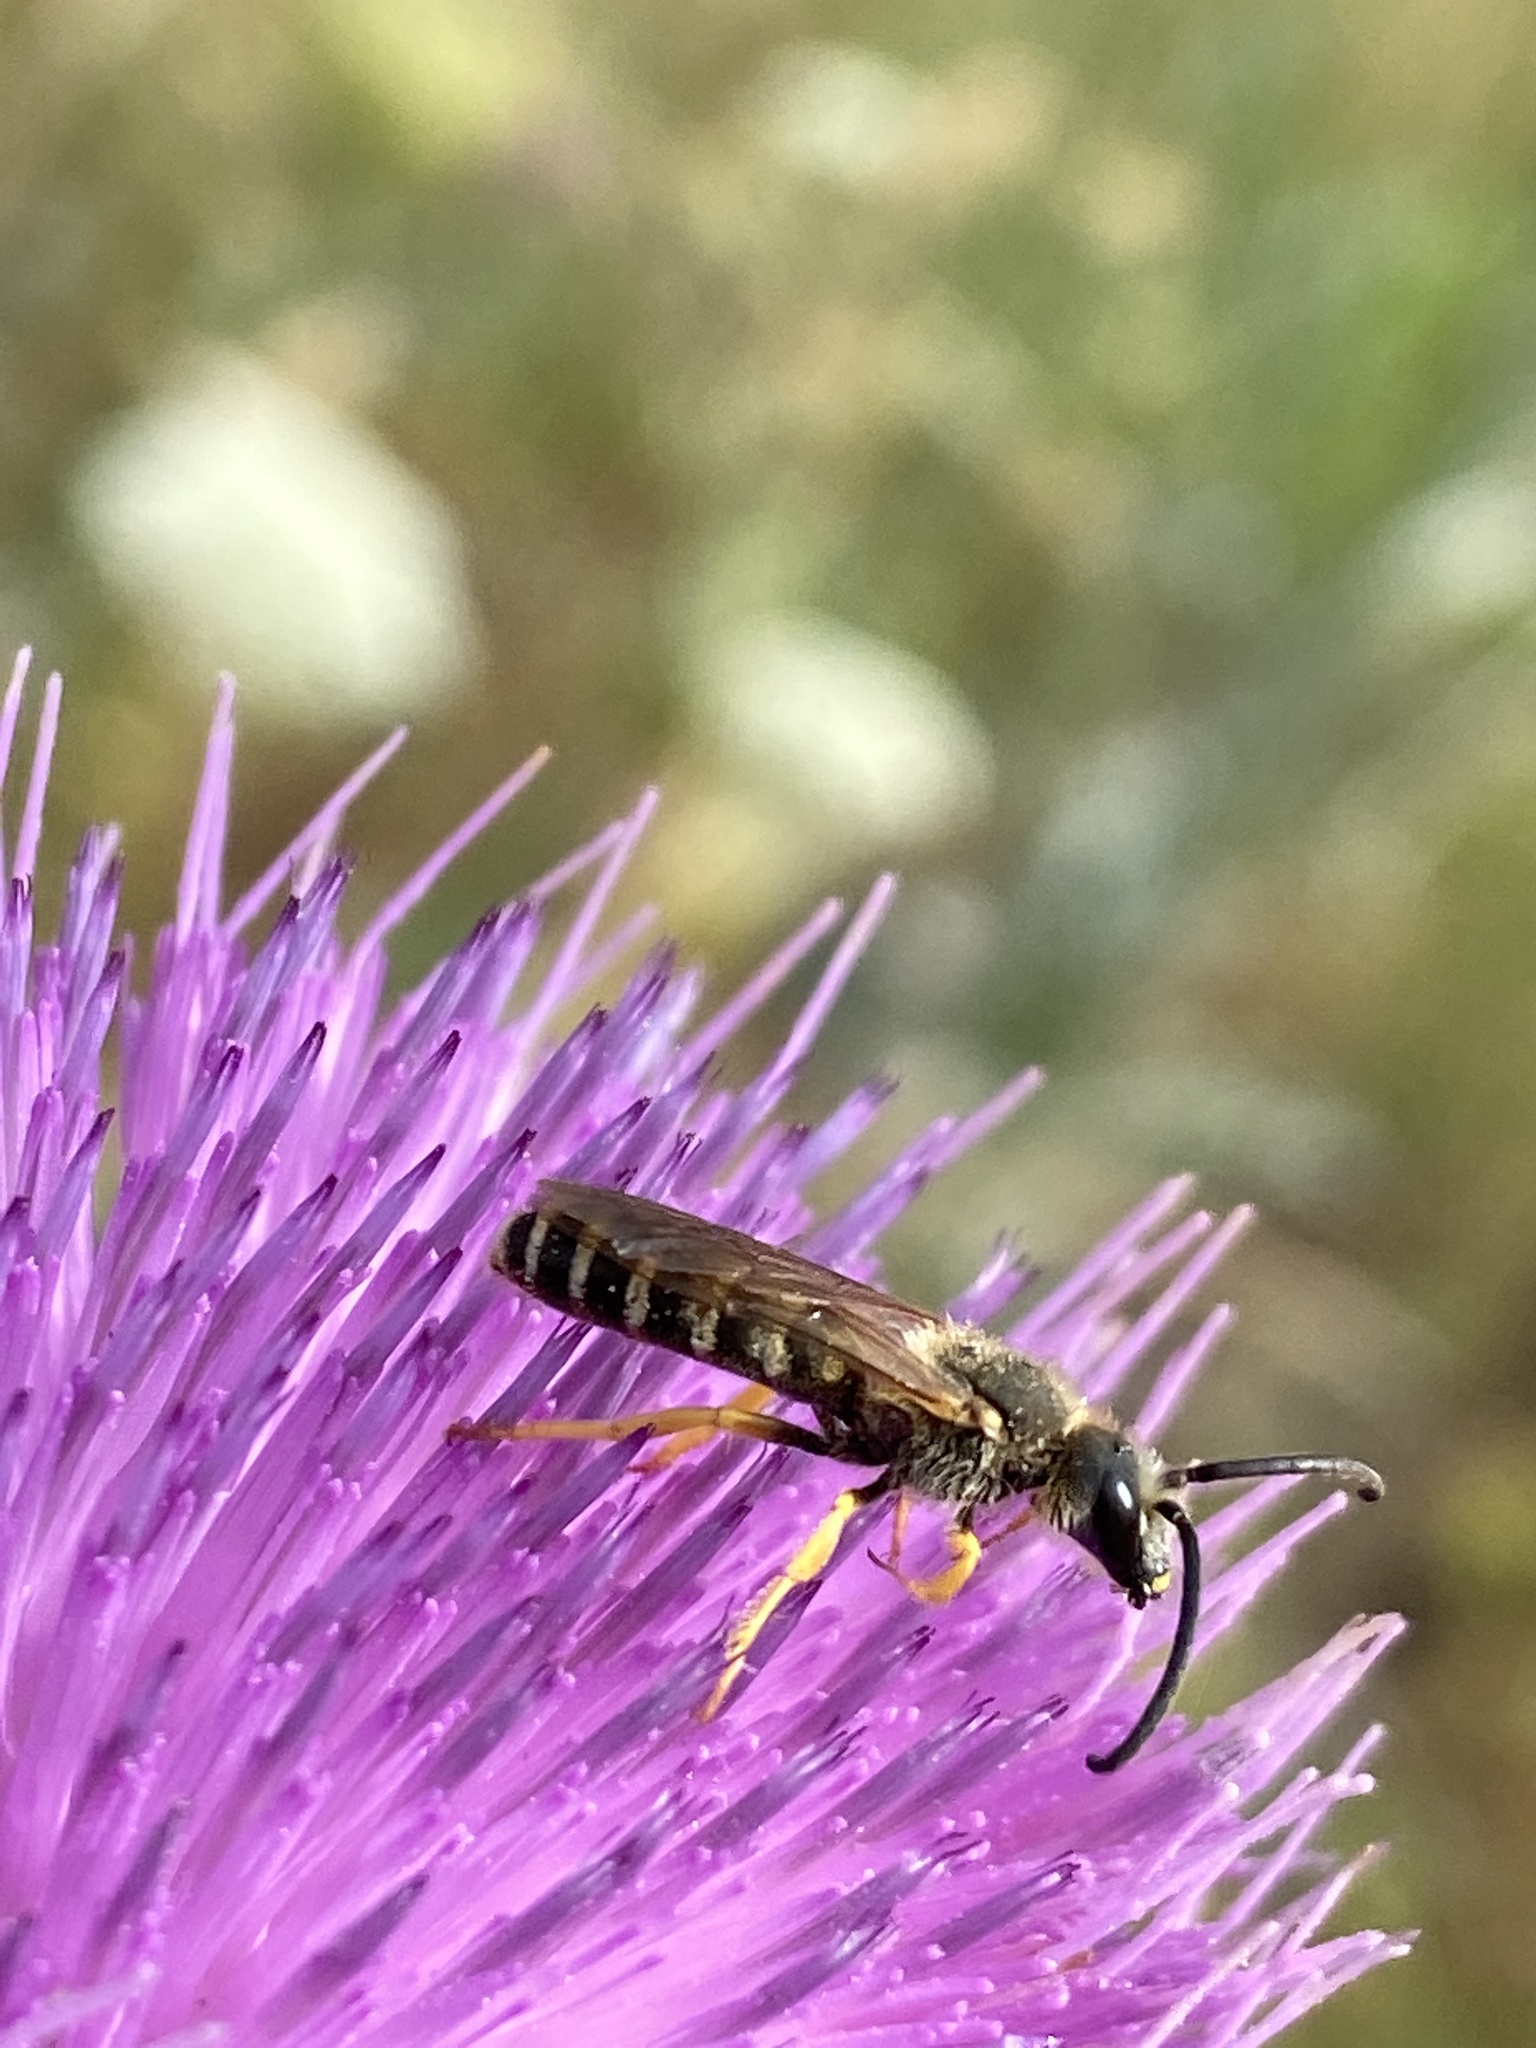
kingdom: Animalia
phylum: Arthropoda
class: Insecta
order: Hymenoptera
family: Halictidae
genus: Halictus
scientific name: Halictus scabiosae
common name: Great banded furrow bee
